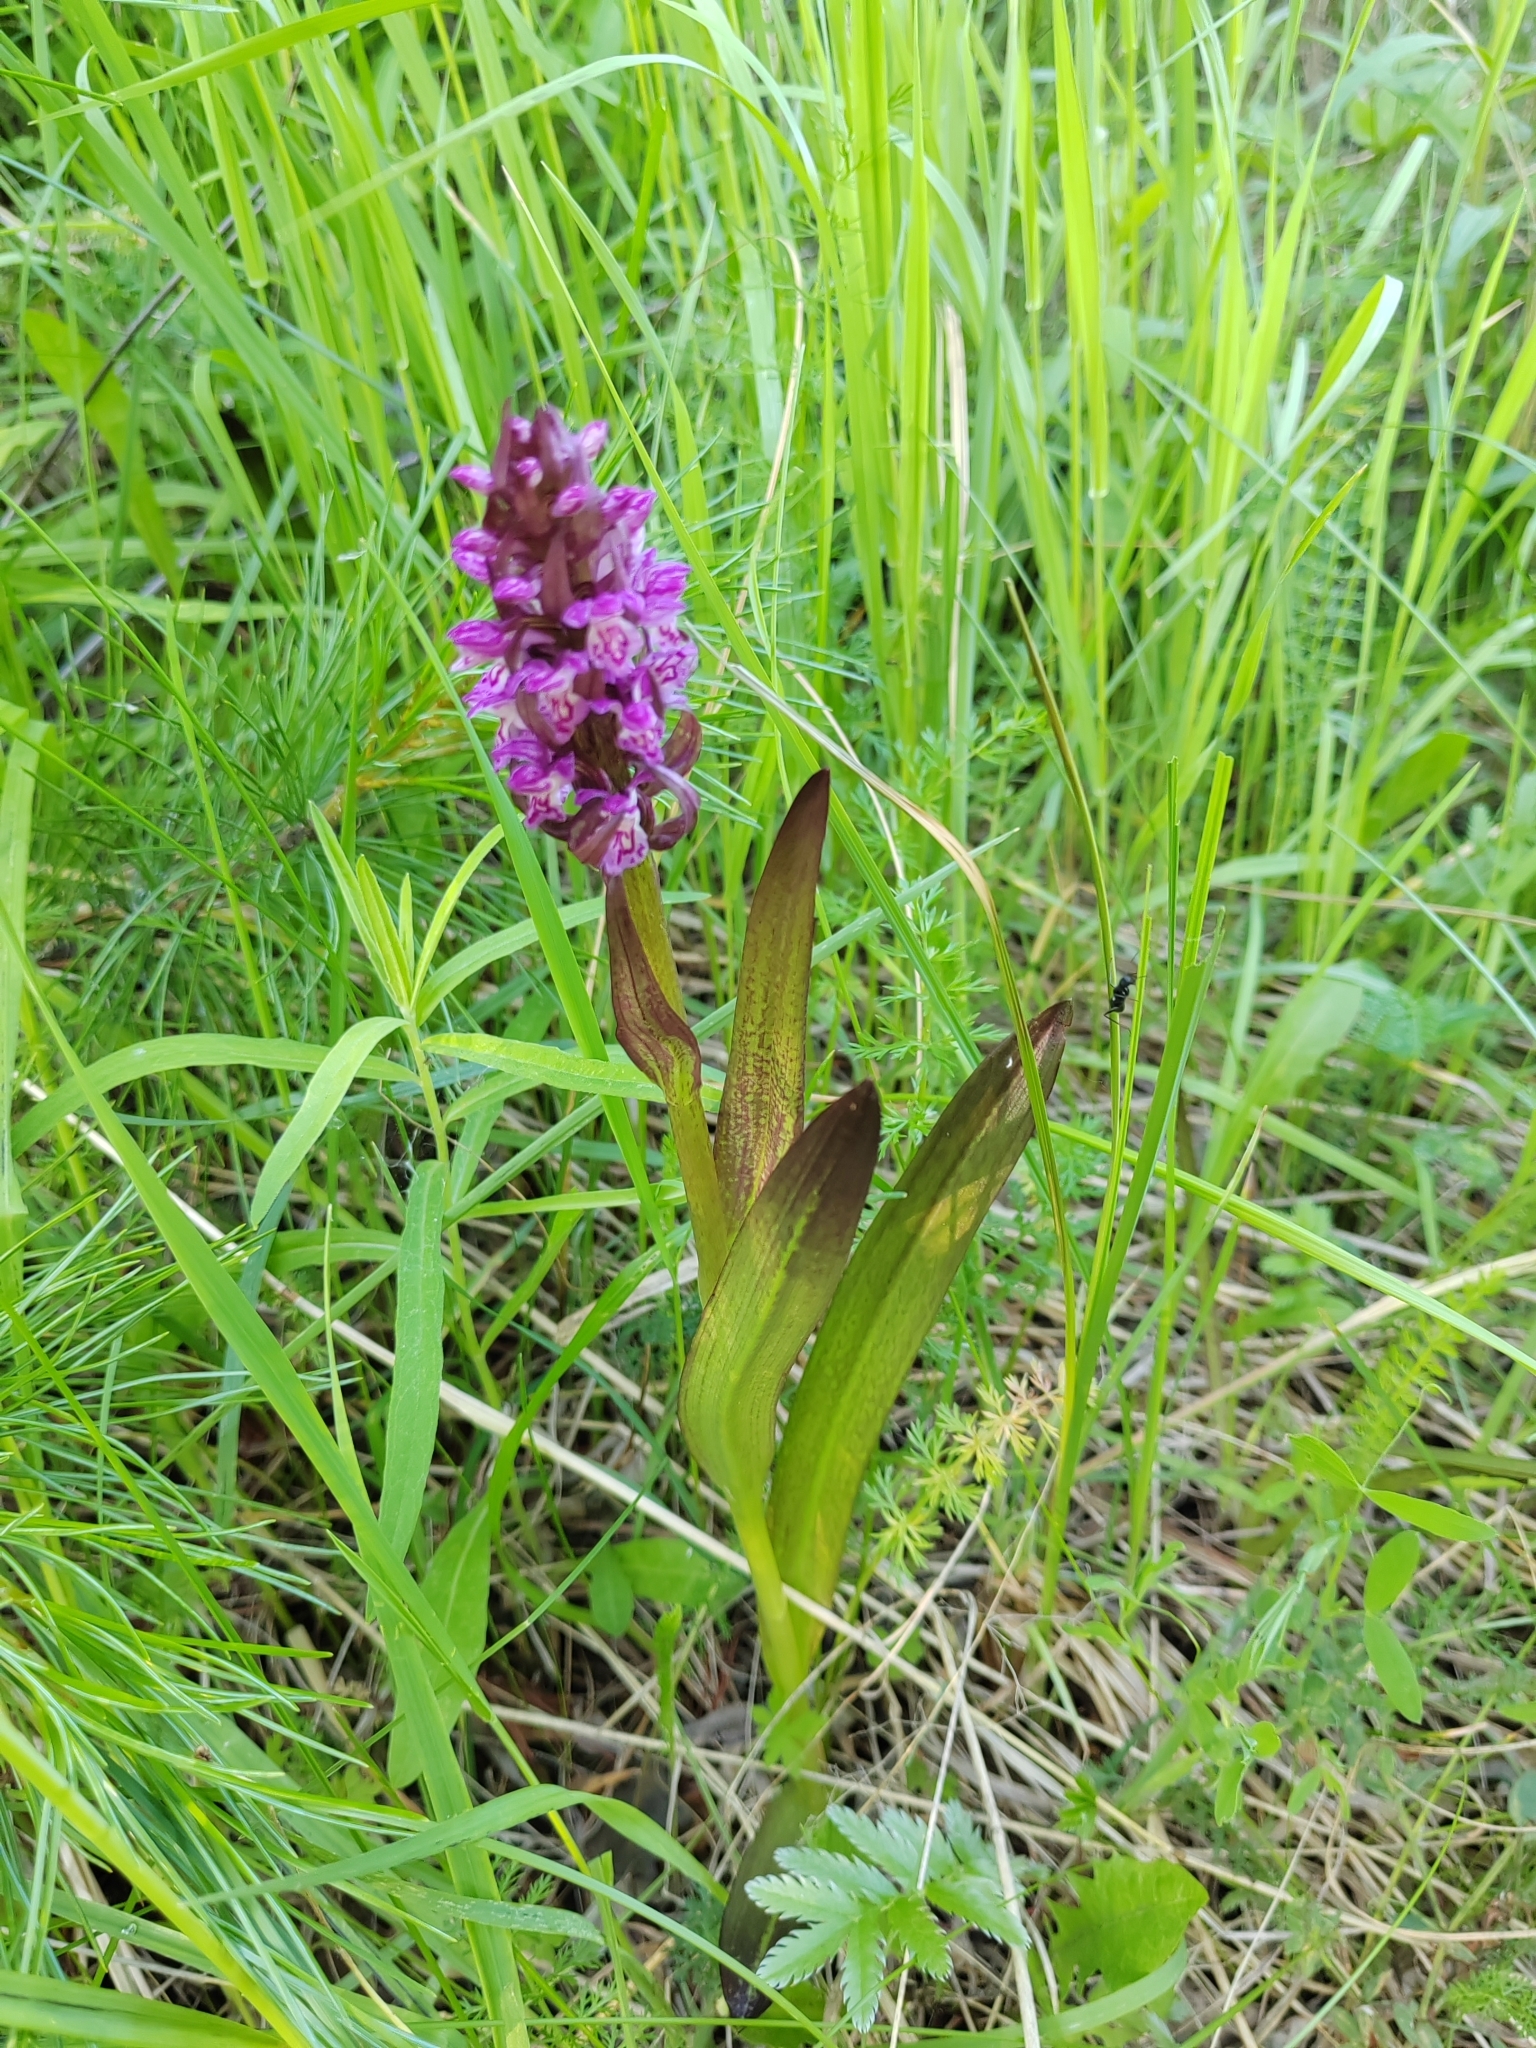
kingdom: Plantae
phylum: Tracheophyta
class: Liliopsida
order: Asparagales
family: Orchidaceae
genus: Dactylorhiza
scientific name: Dactylorhiza incarnata
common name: Early marsh-orchid
